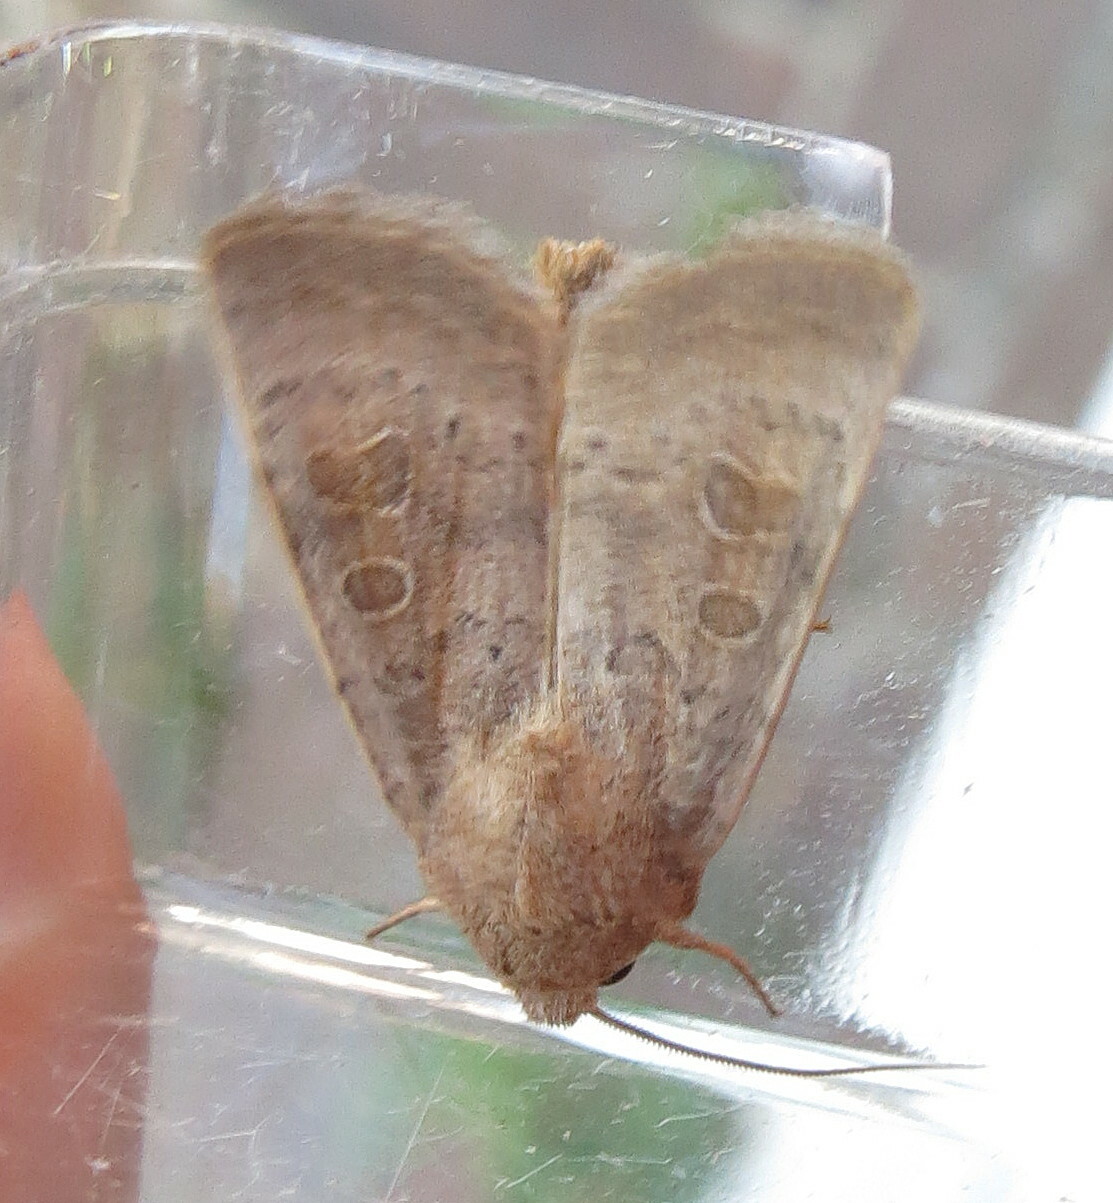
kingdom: Animalia
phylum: Arthropoda
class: Insecta
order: Lepidoptera
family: Noctuidae
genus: Hoplodrina
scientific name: Hoplodrina ambigua
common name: Vine's rustic
